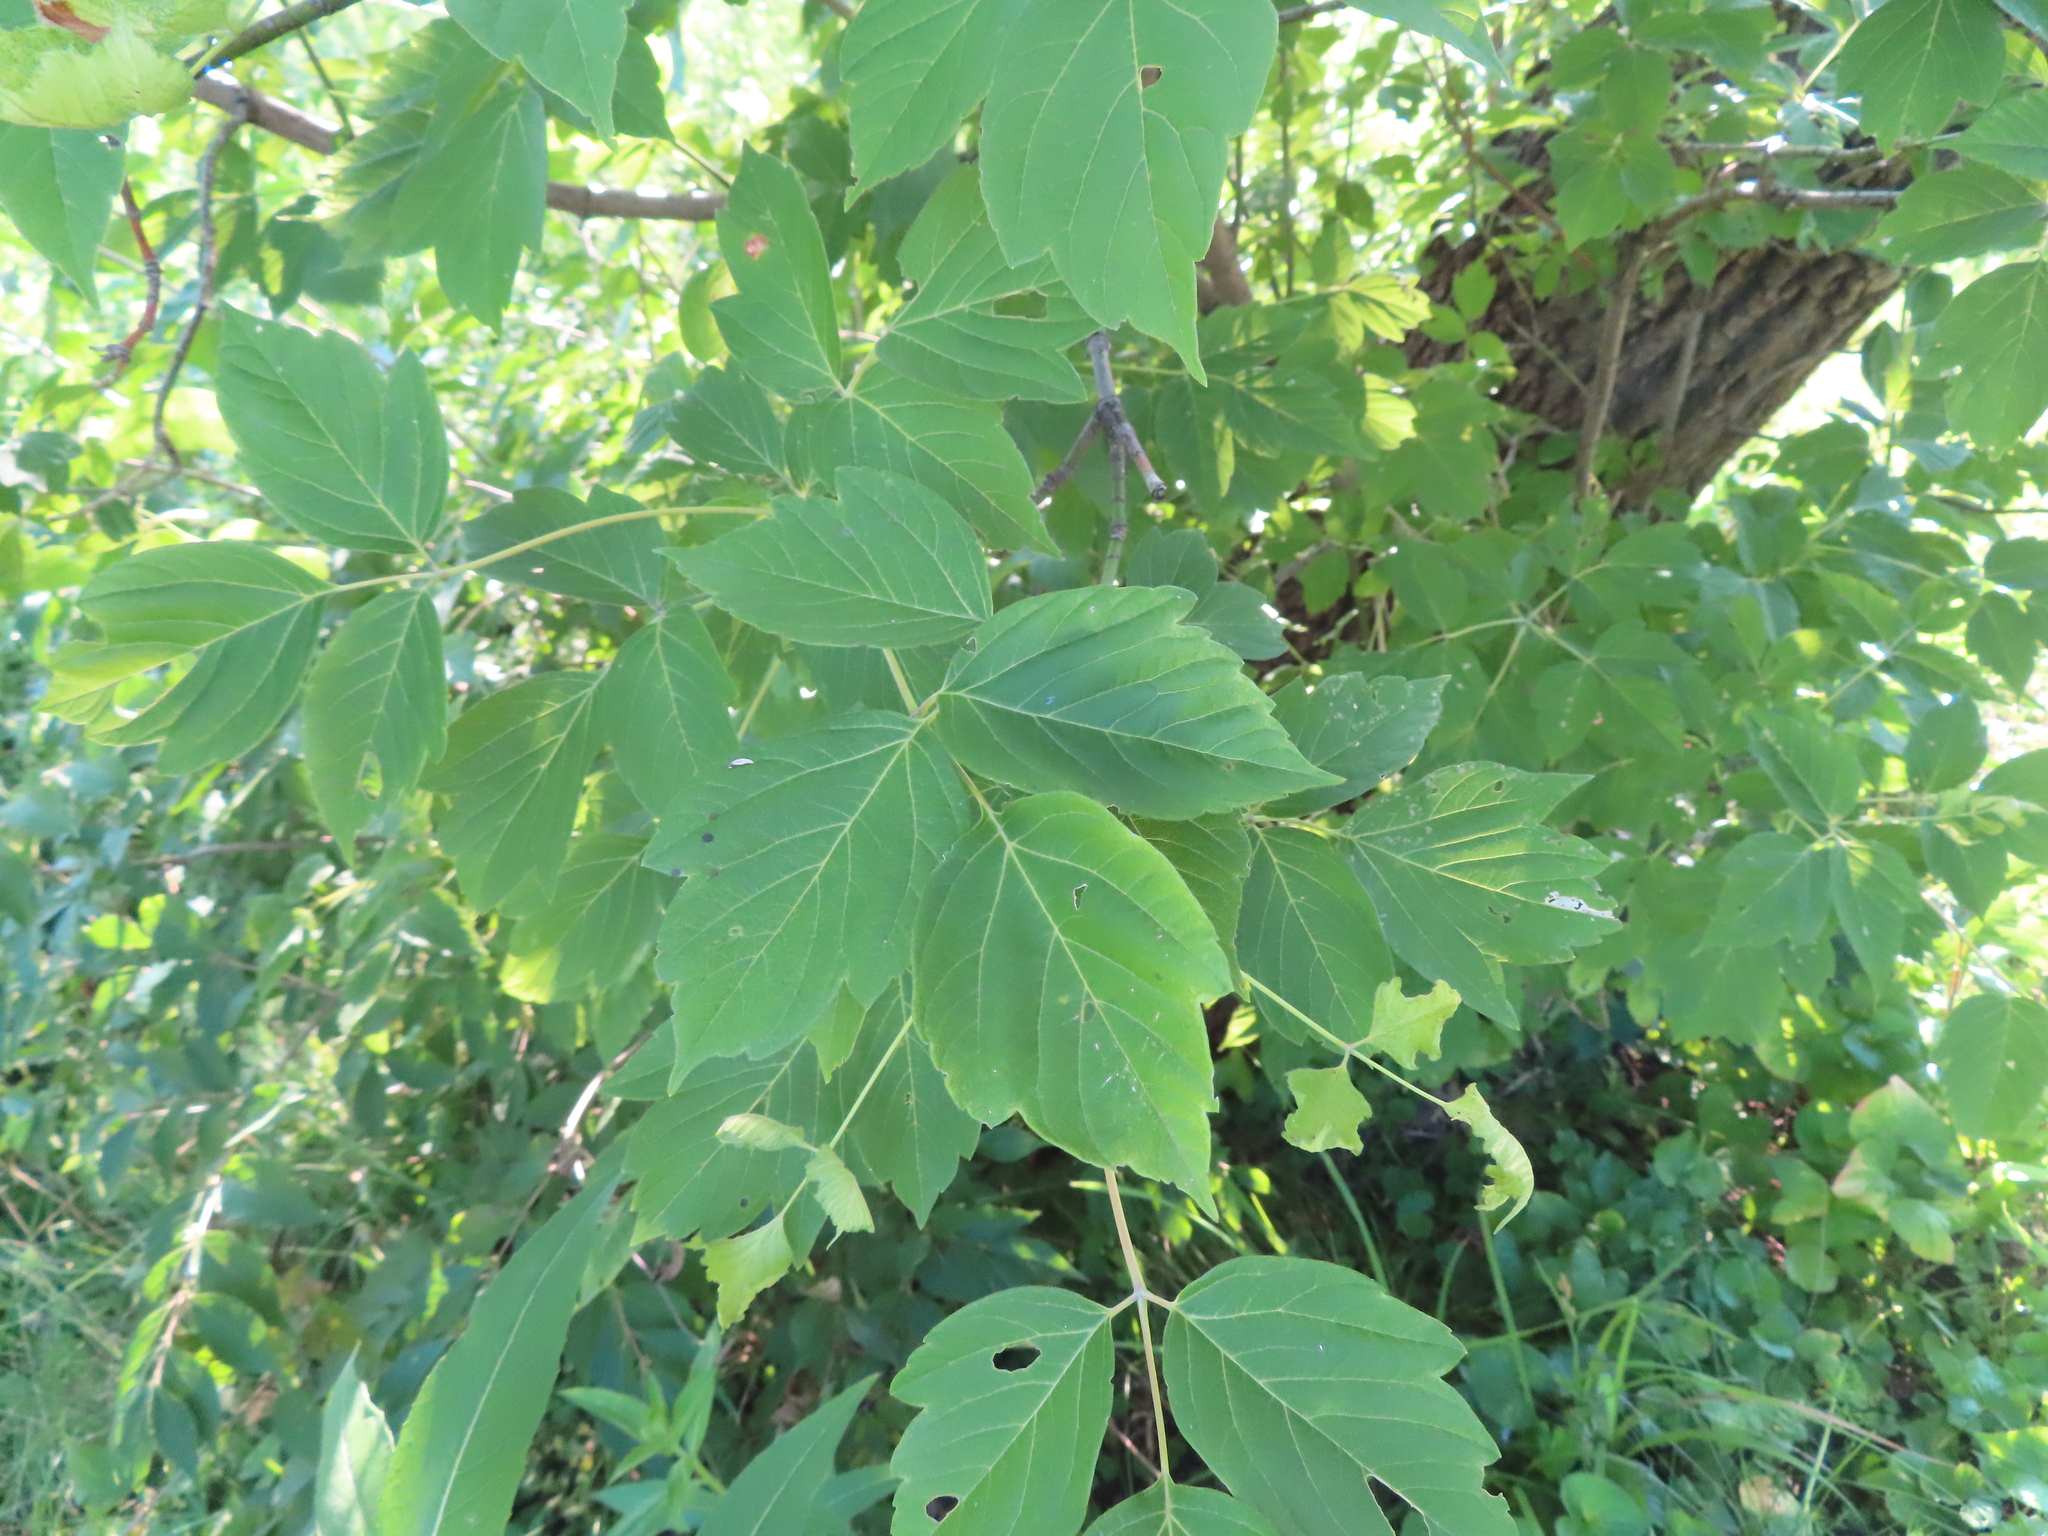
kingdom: Plantae
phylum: Tracheophyta
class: Magnoliopsida
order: Sapindales
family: Sapindaceae
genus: Acer
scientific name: Acer negundo
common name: Ashleaf maple
